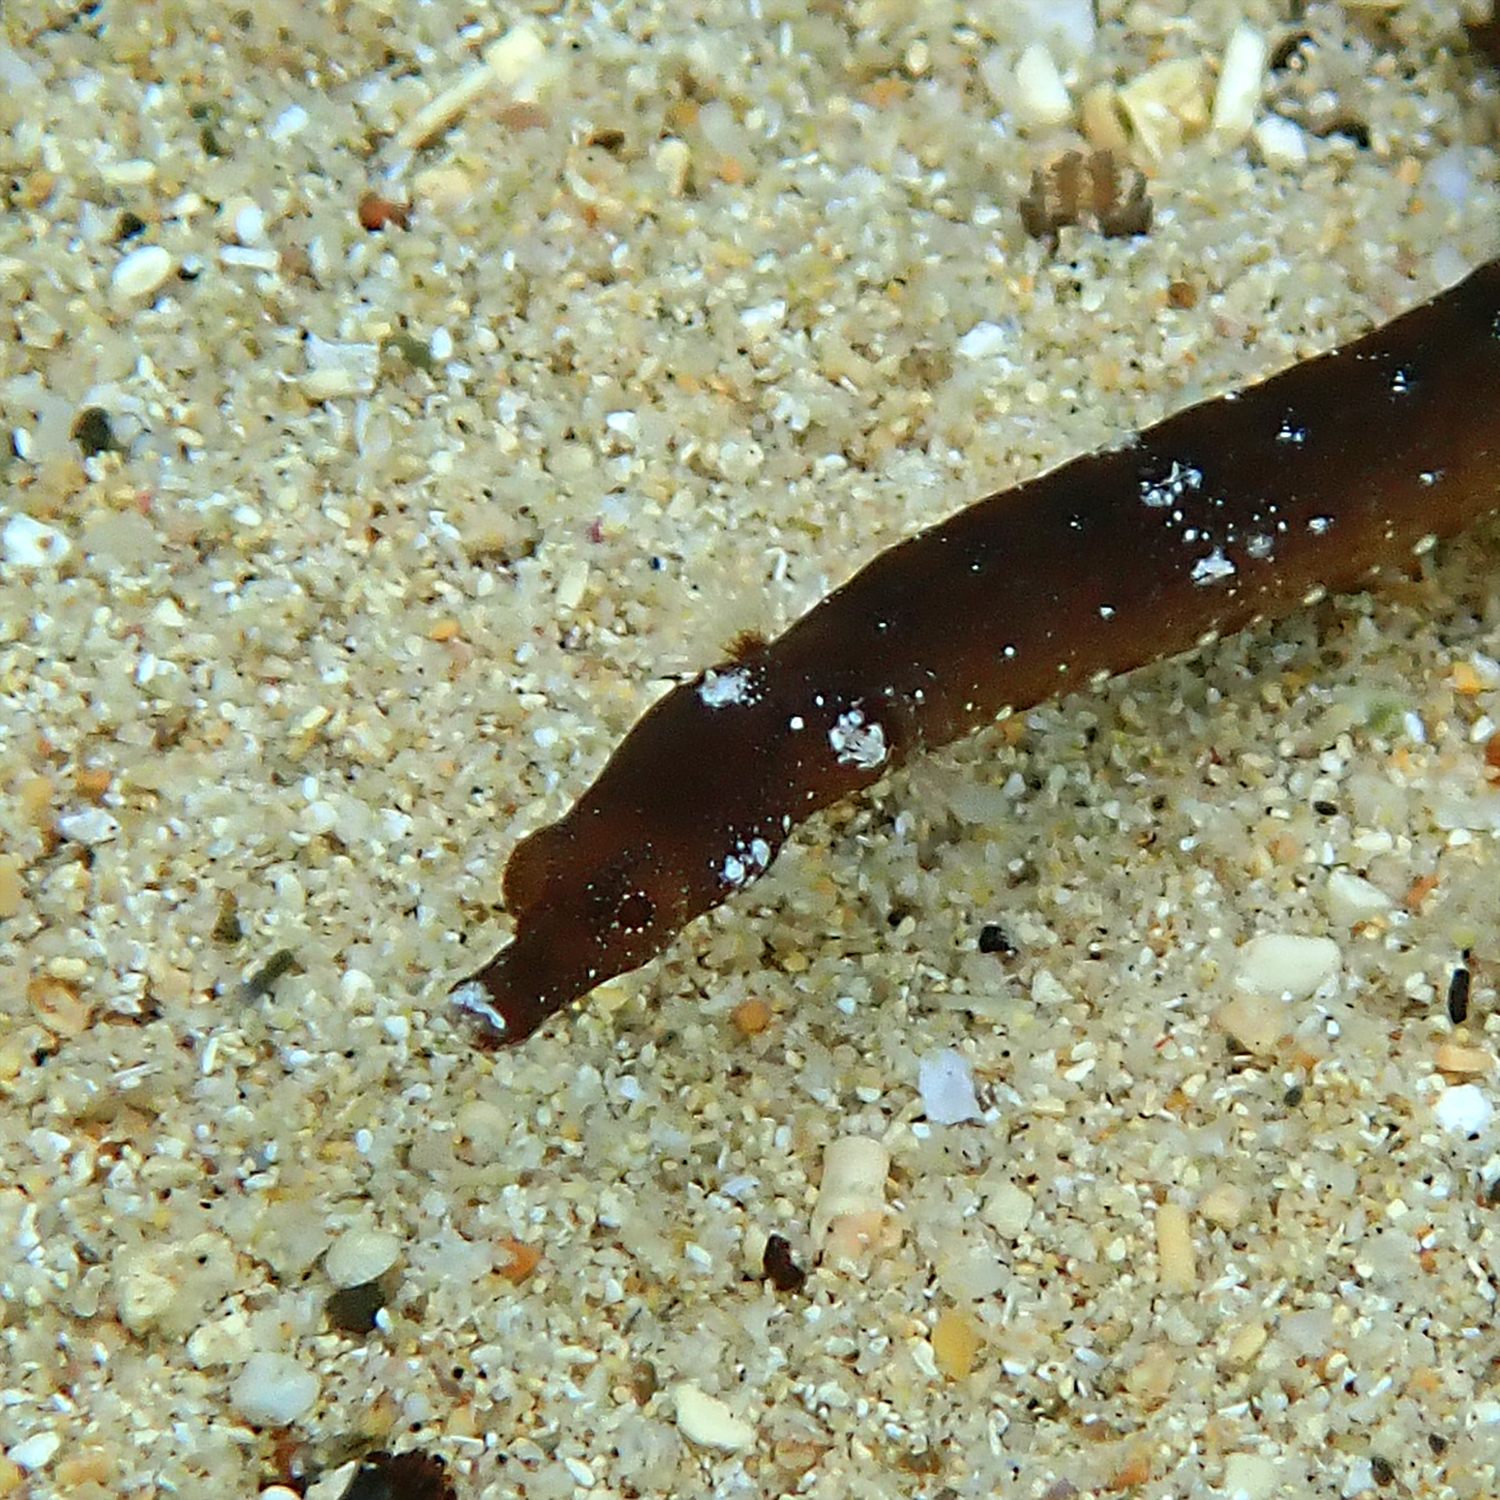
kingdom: Animalia
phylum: Chordata
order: Syngnathiformes
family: Syngnathidae
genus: Halicampus
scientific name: Halicampus boothae
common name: Booth's pipefish
